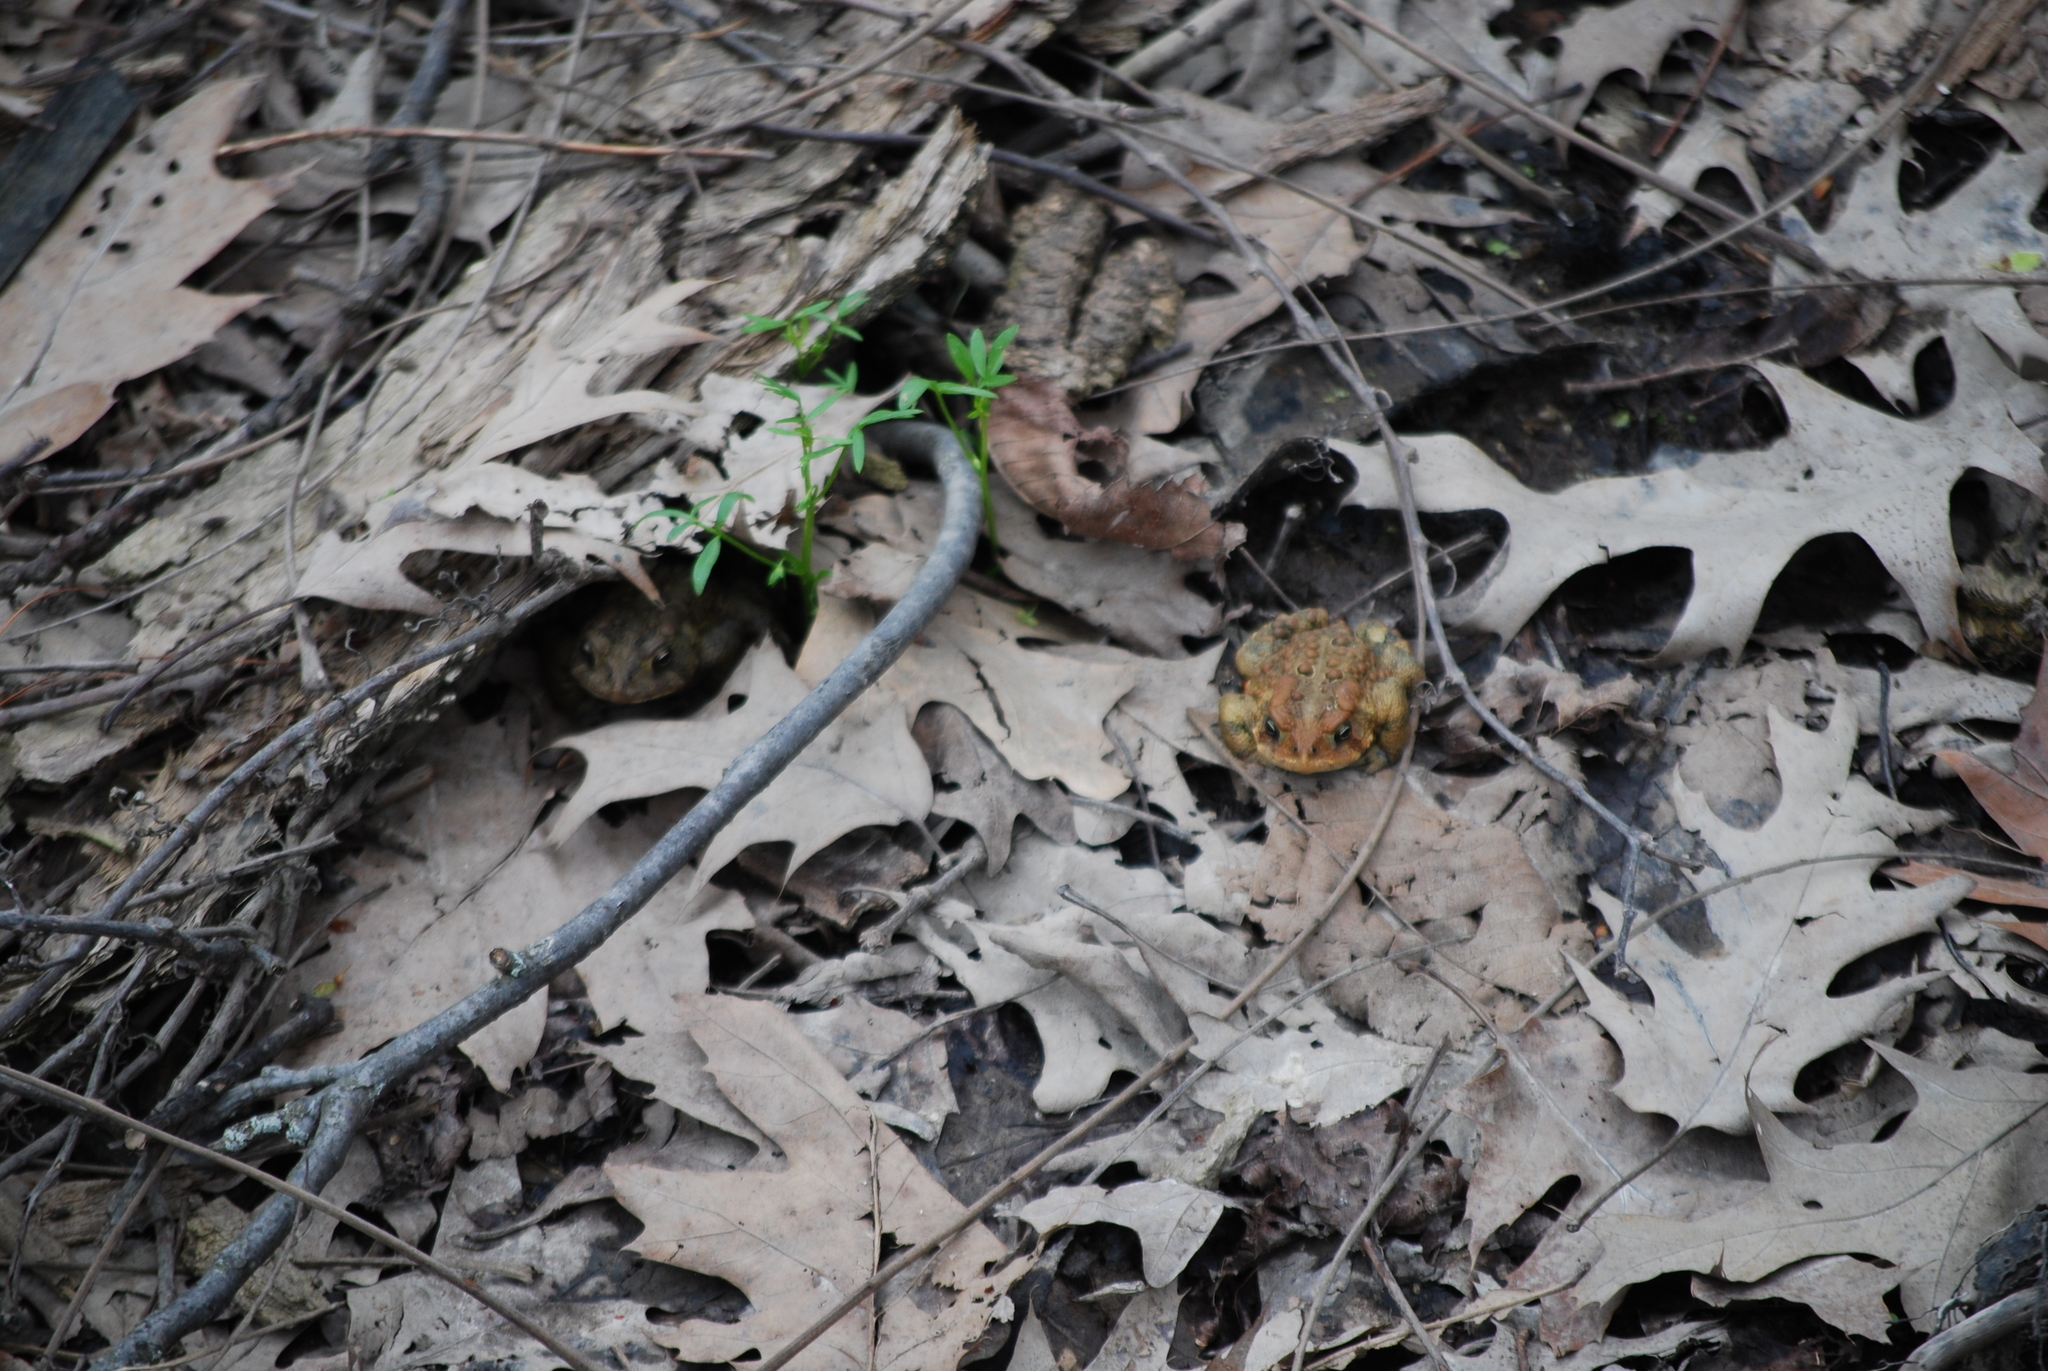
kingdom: Animalia
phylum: Chordata
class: Amphibia
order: Anura
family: Bufonidae
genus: Anaxyrus
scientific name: Anaxyrus americanus
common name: American toad
